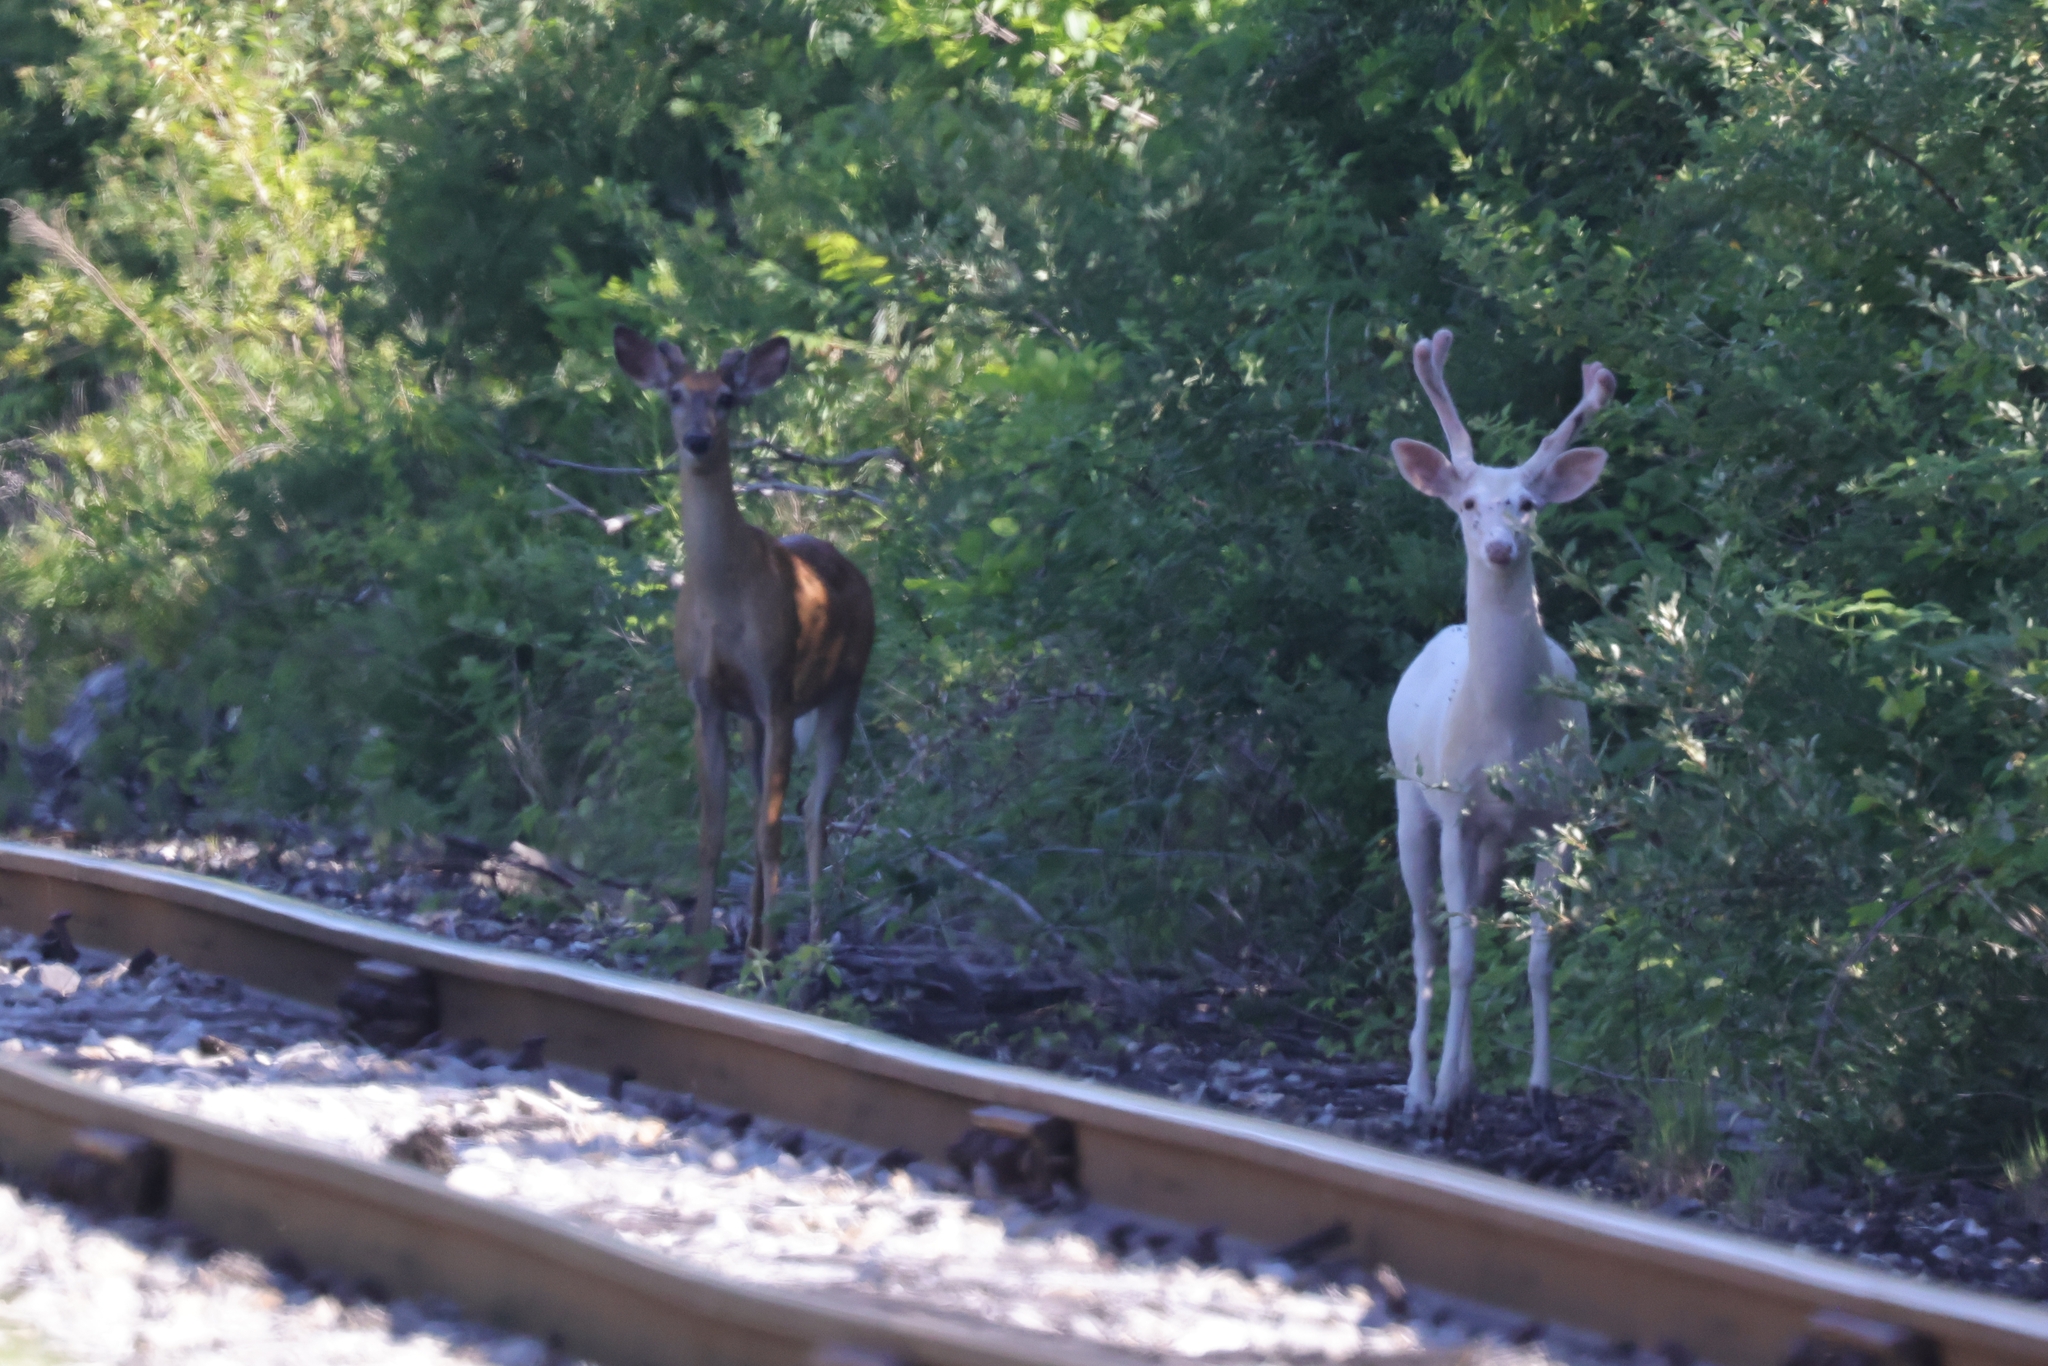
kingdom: Animalia
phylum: Chordata
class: Mammalia
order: Artiodactyla
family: Cervidae
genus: Odocoileus
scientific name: Odocoileus virginianus
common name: White-tailed deer
